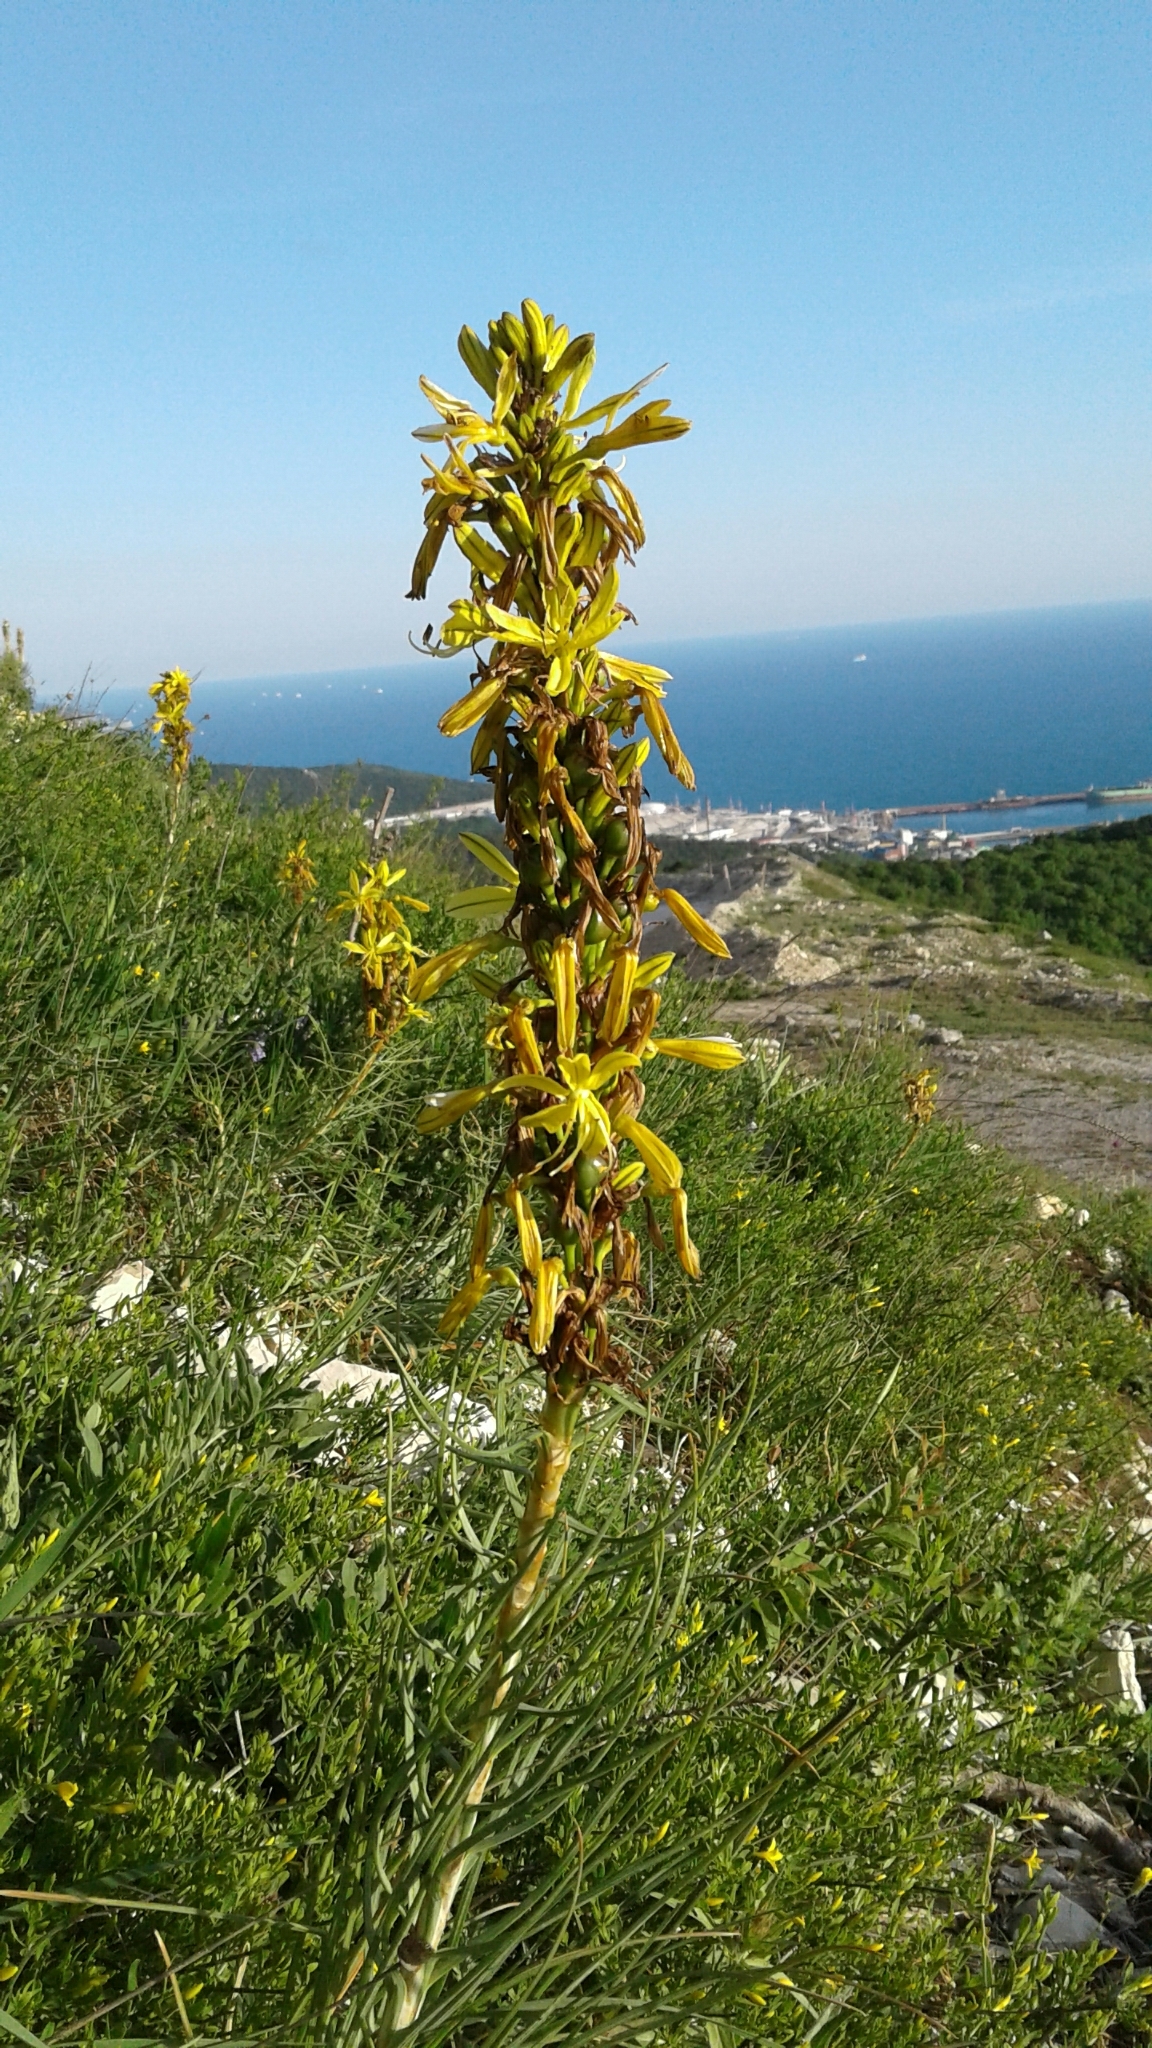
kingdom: Plantae
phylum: Tracheophyta
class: Liliopsida
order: Asparagales
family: Asphodelaceae
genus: Asphodeline
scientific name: Asphodeline lutea
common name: Yellow asphodel
